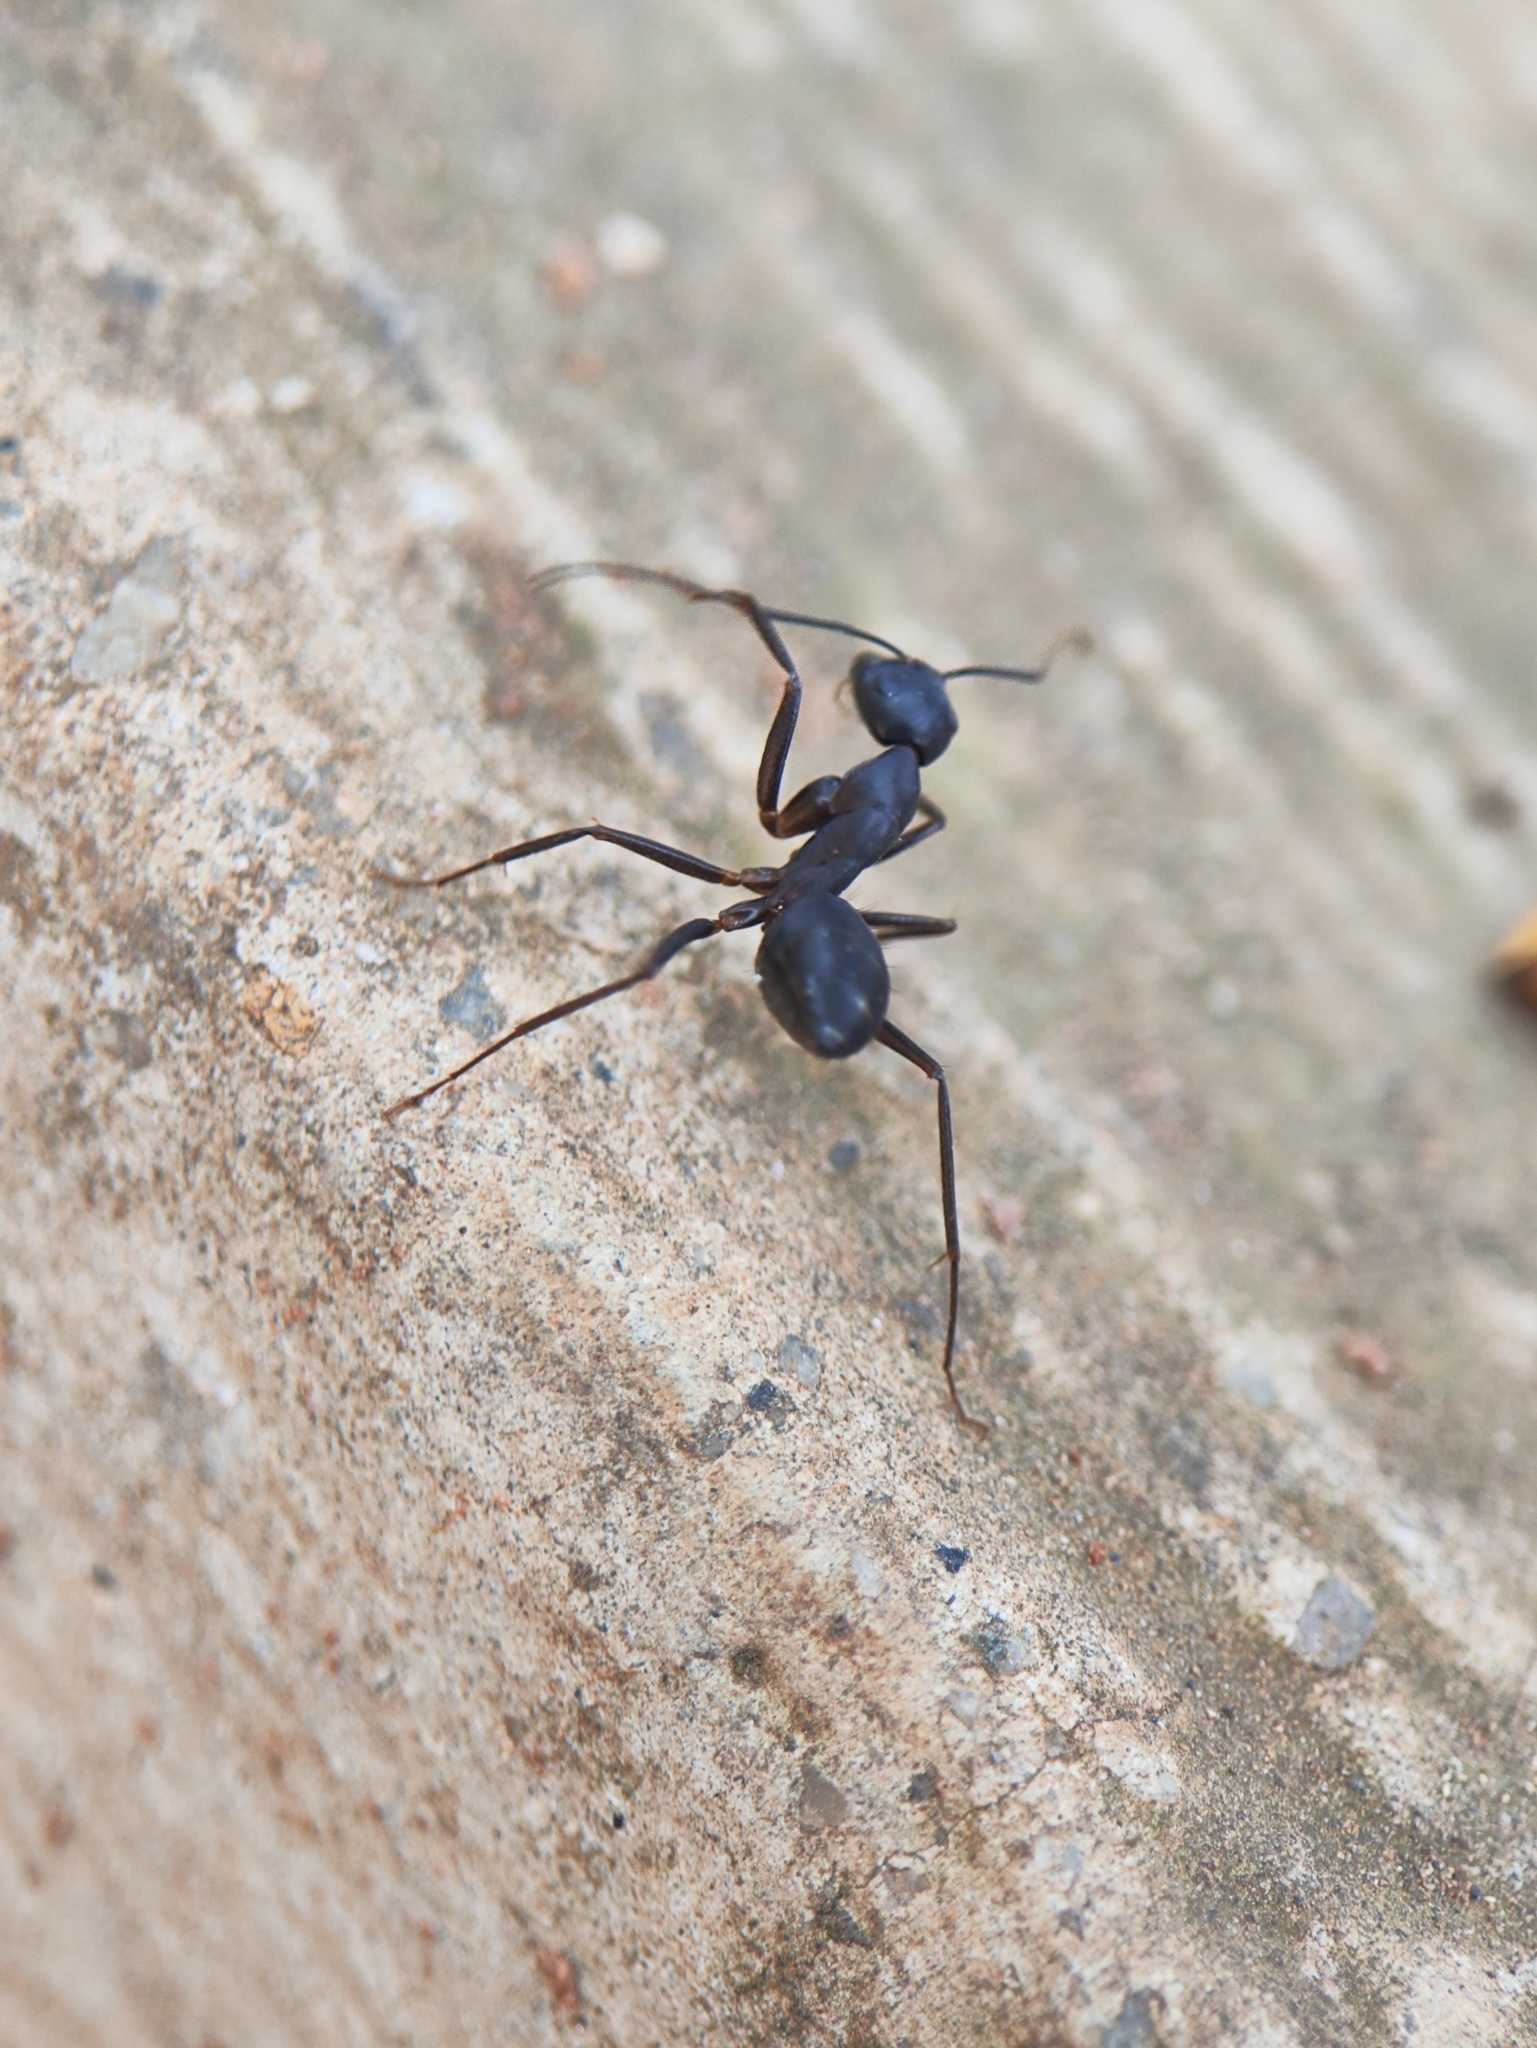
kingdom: Animalia
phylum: Arthropoda
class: Insecta
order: Hymenoptera
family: Formicidae
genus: Camponotus
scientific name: Camponotus compressus
